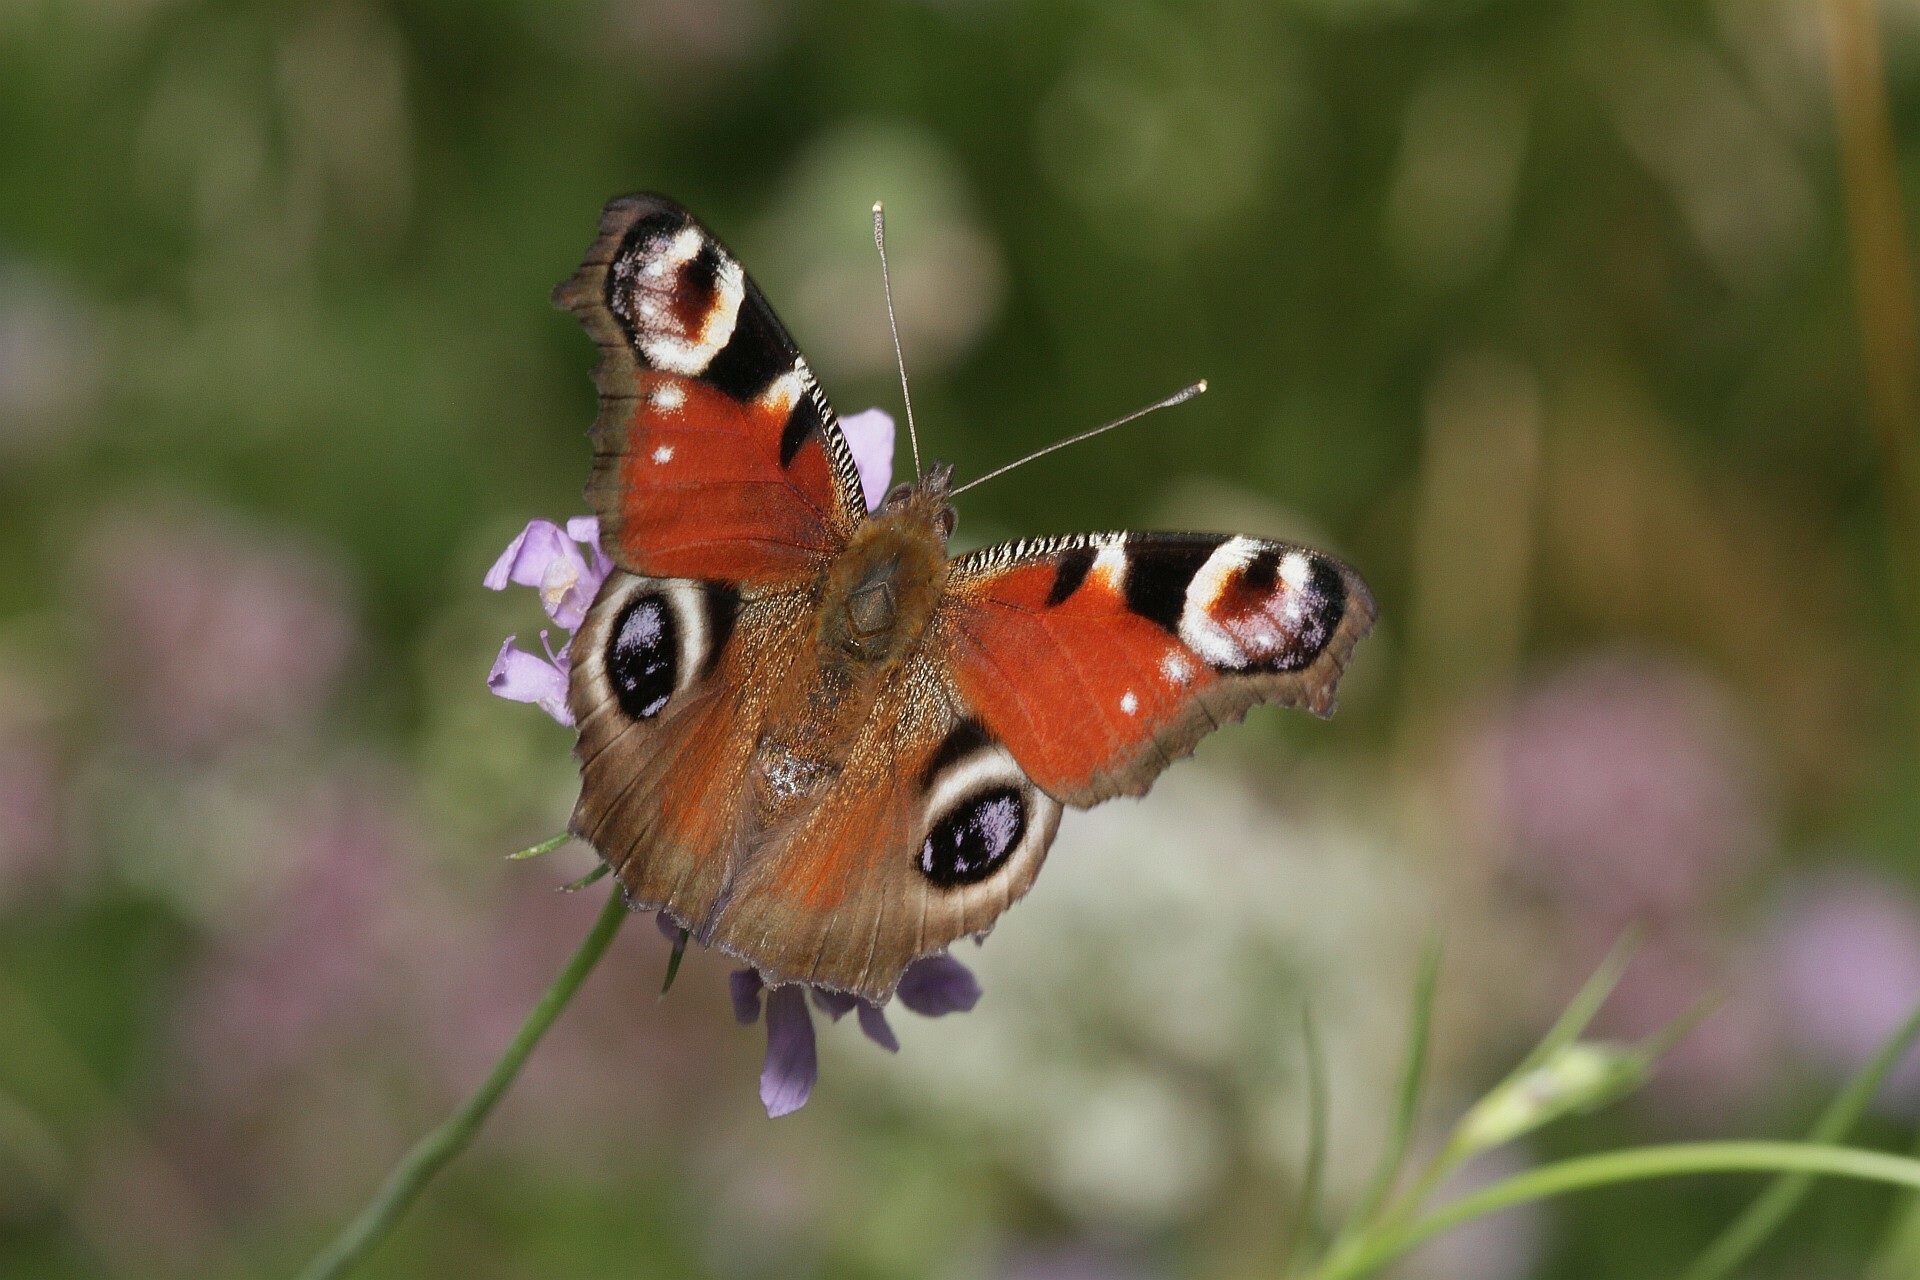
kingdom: Animalia
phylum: Arthropoda
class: Insecta
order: Lepidoptera
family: Nymphalidae
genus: Aglais
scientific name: Aglais io
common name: Peacock
